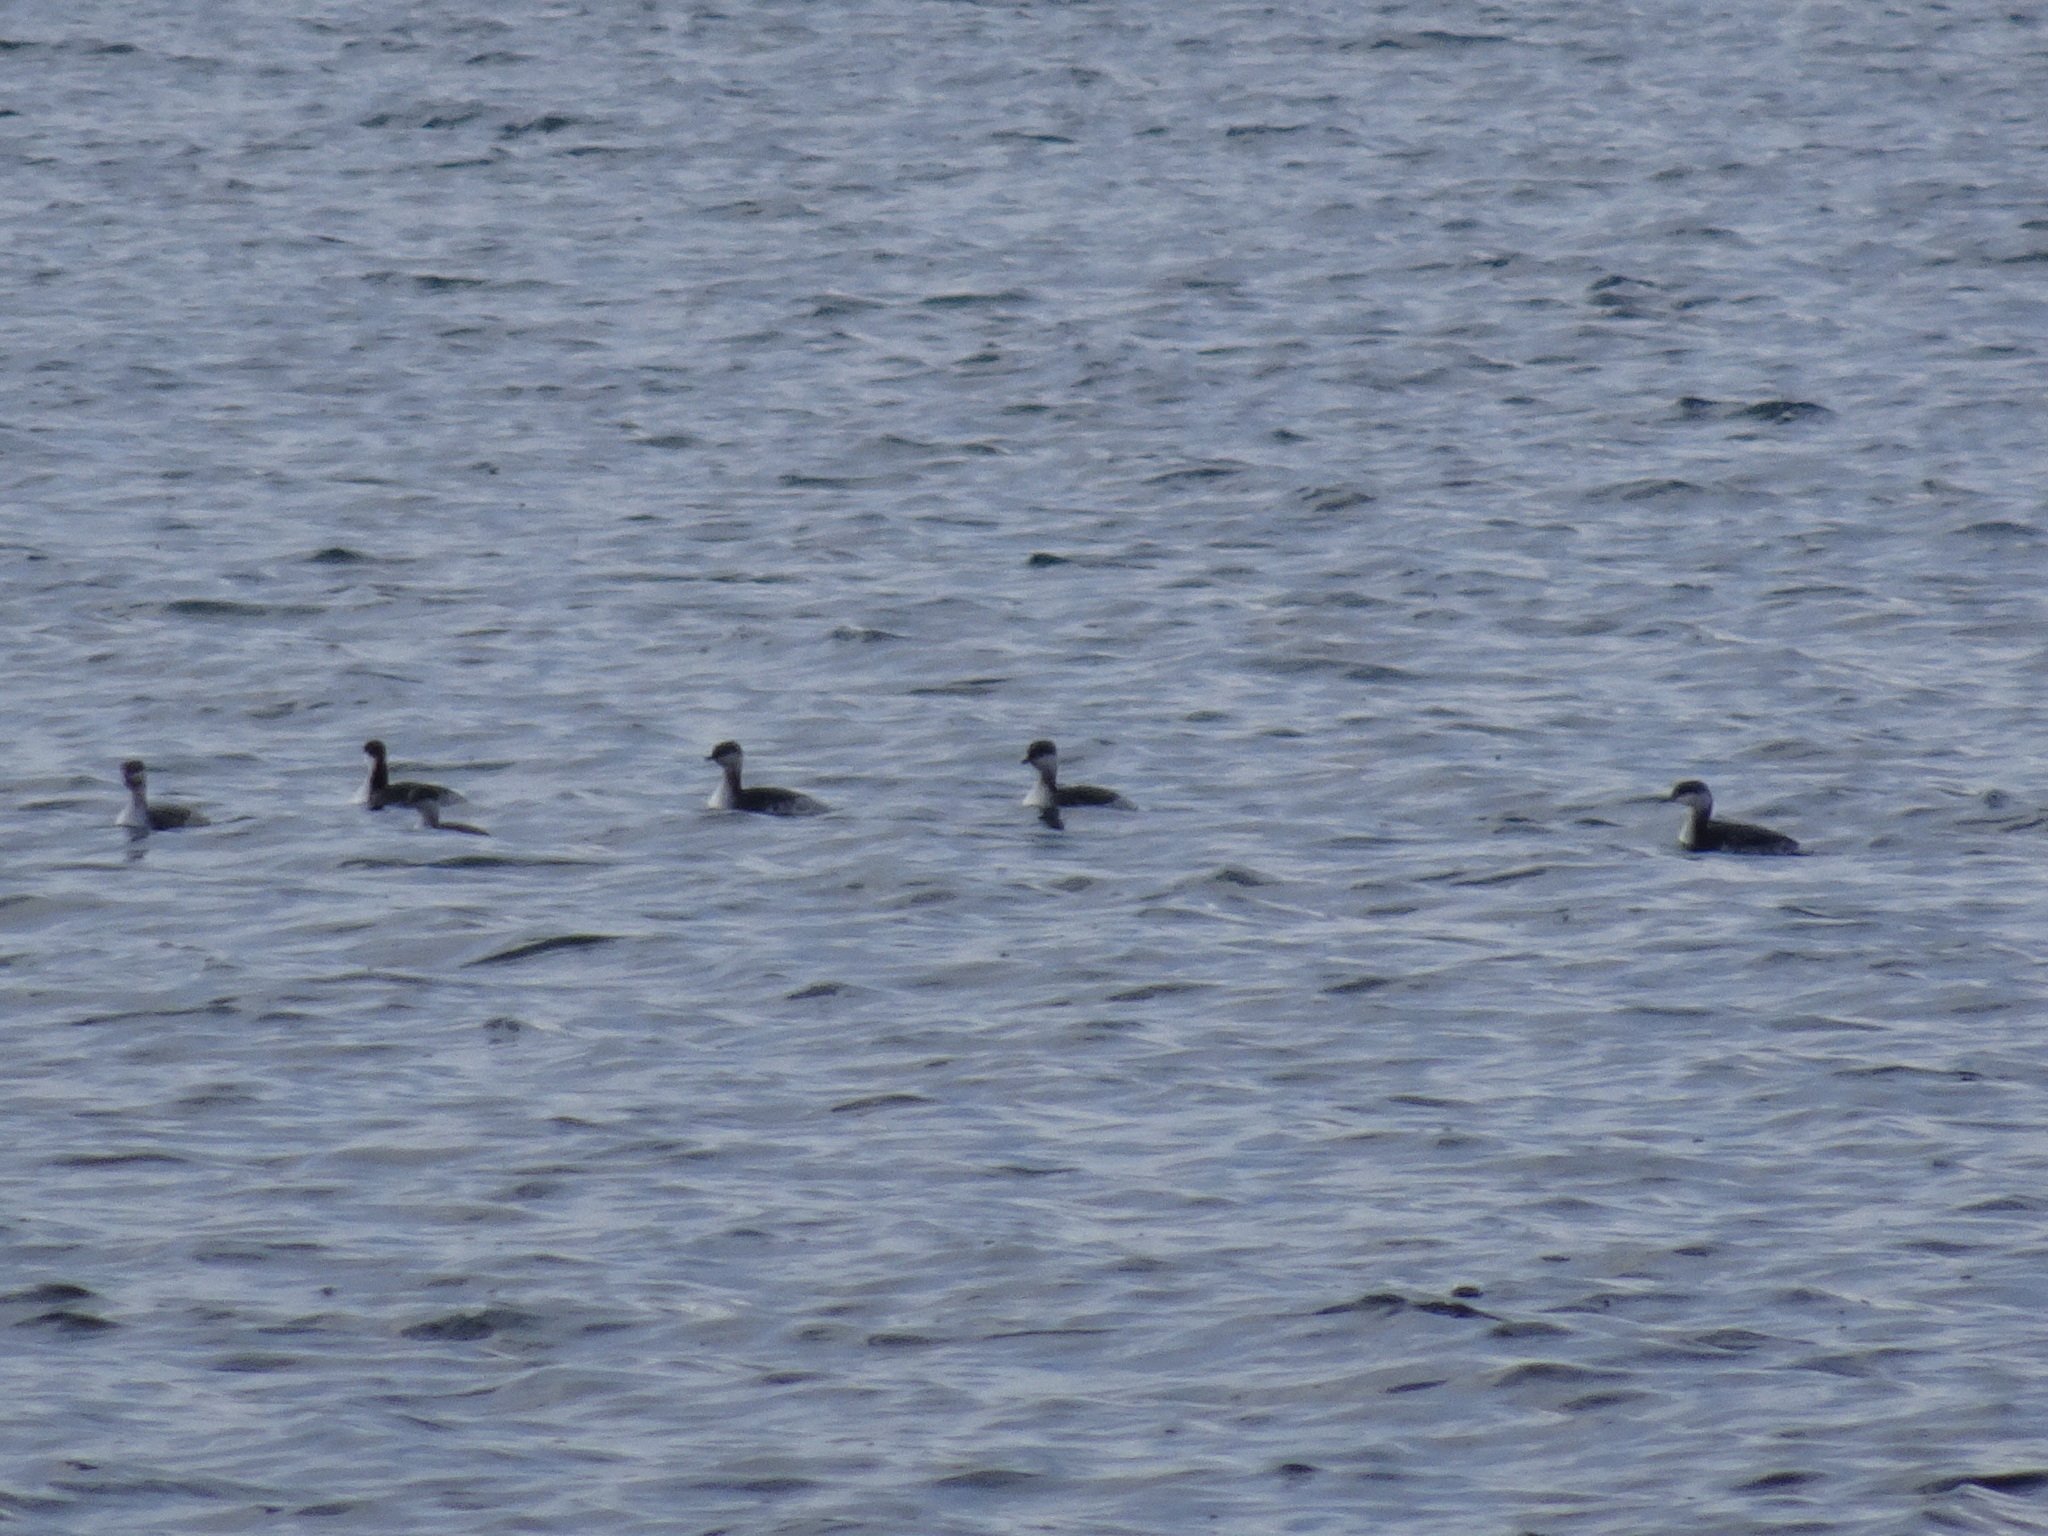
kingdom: Animalia
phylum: Chordata
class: Aves
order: Podicipediformes
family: Podicipedidae
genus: Podiceps
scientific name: Podiceps auritus
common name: Horned grebe
